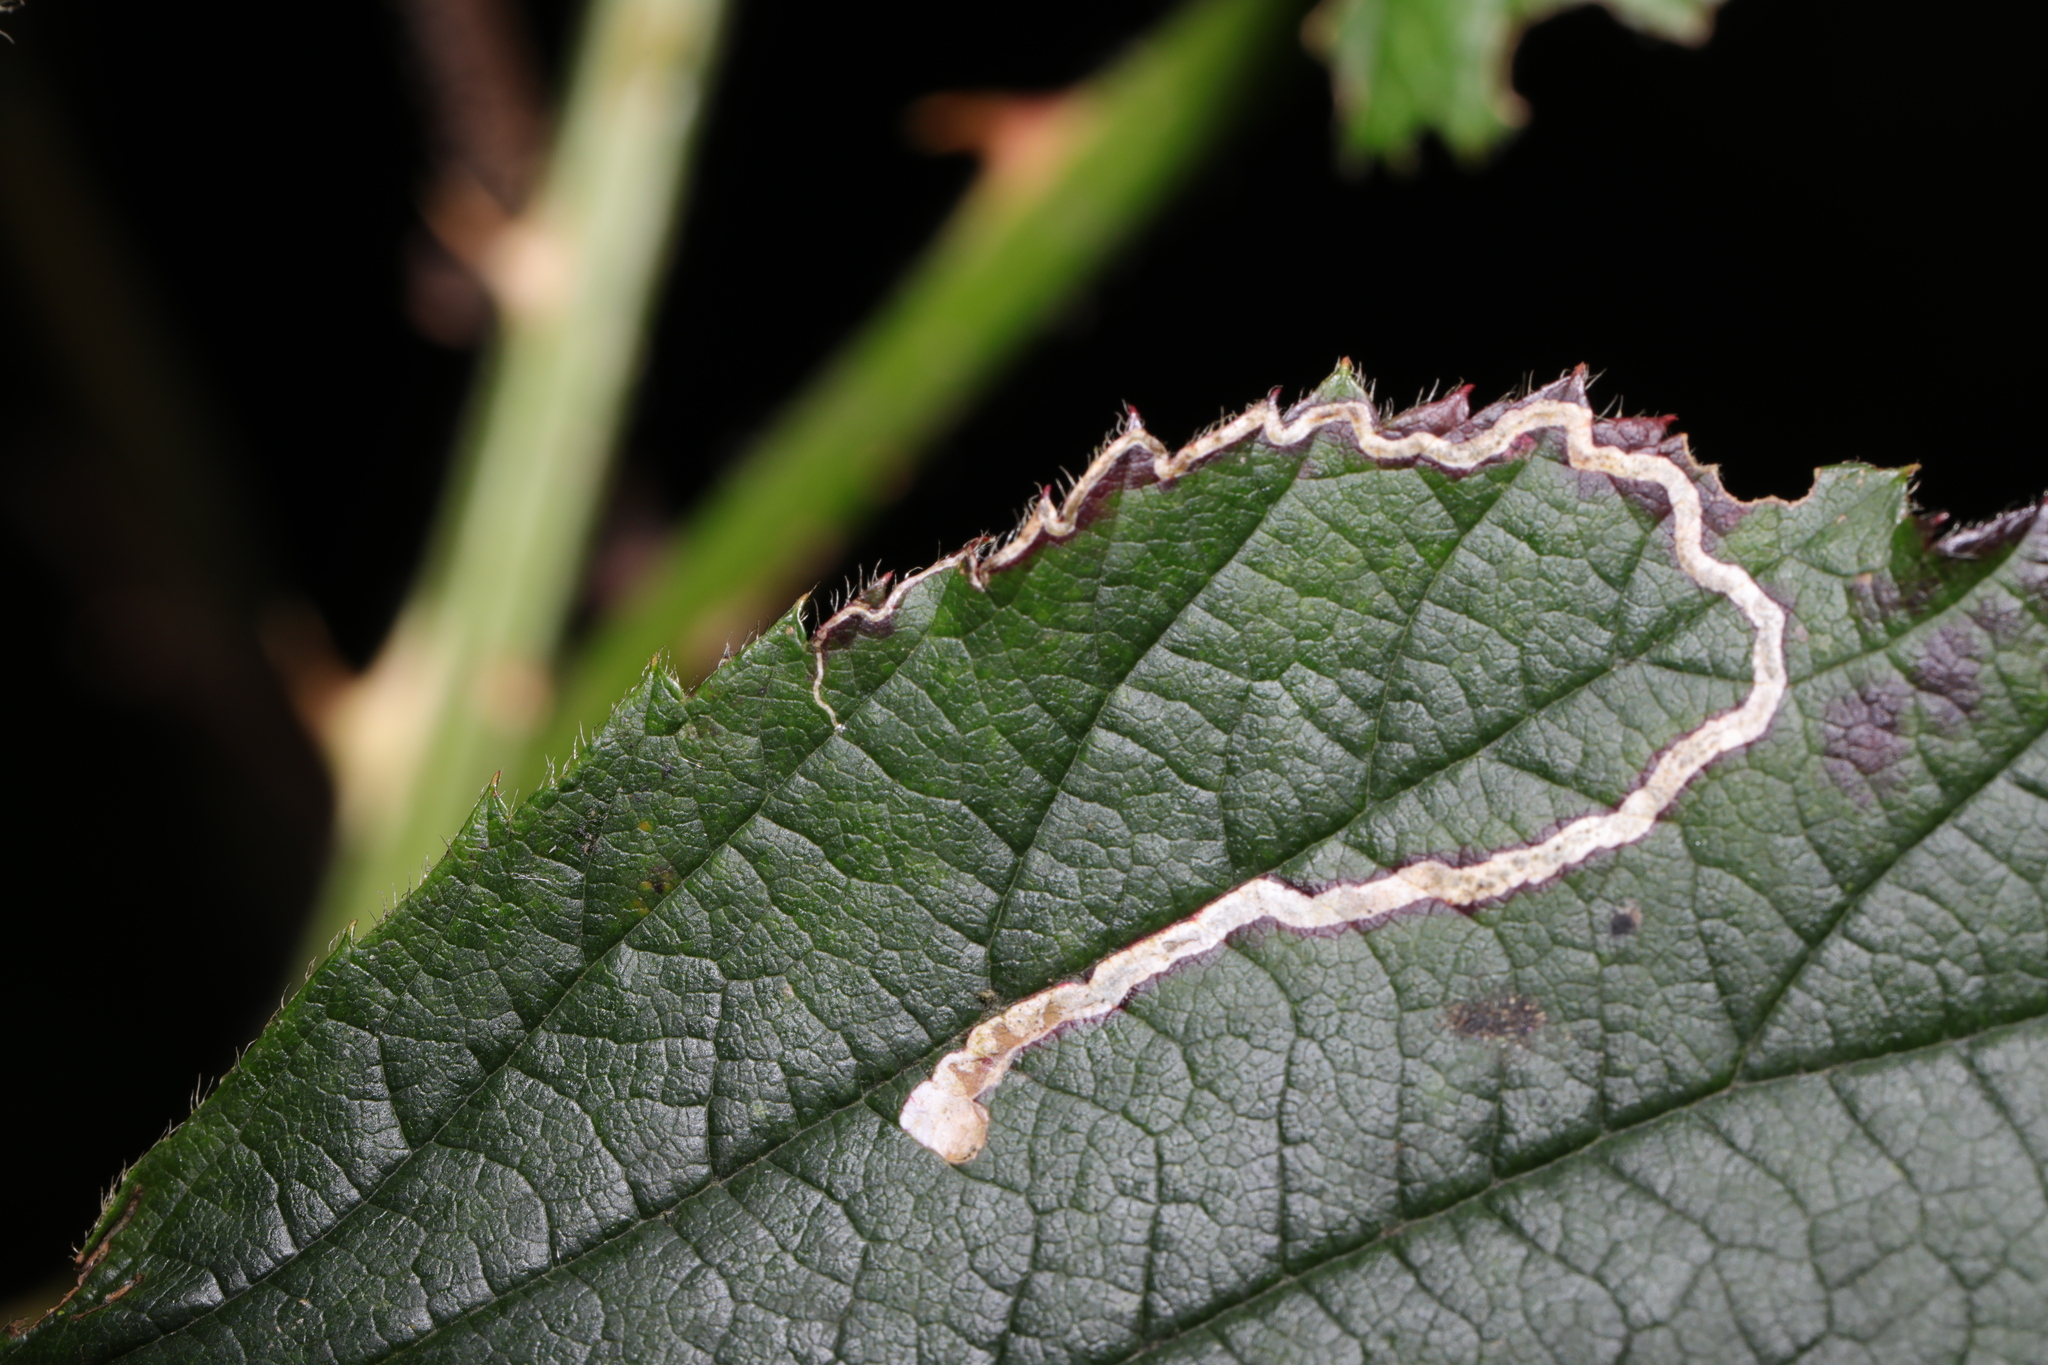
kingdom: Animalia
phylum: Arthropoda
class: Insecta
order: Lepidoptera
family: Nepticulidae
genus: Stigmella
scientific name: Stigmella aurella
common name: Golden pigmy
